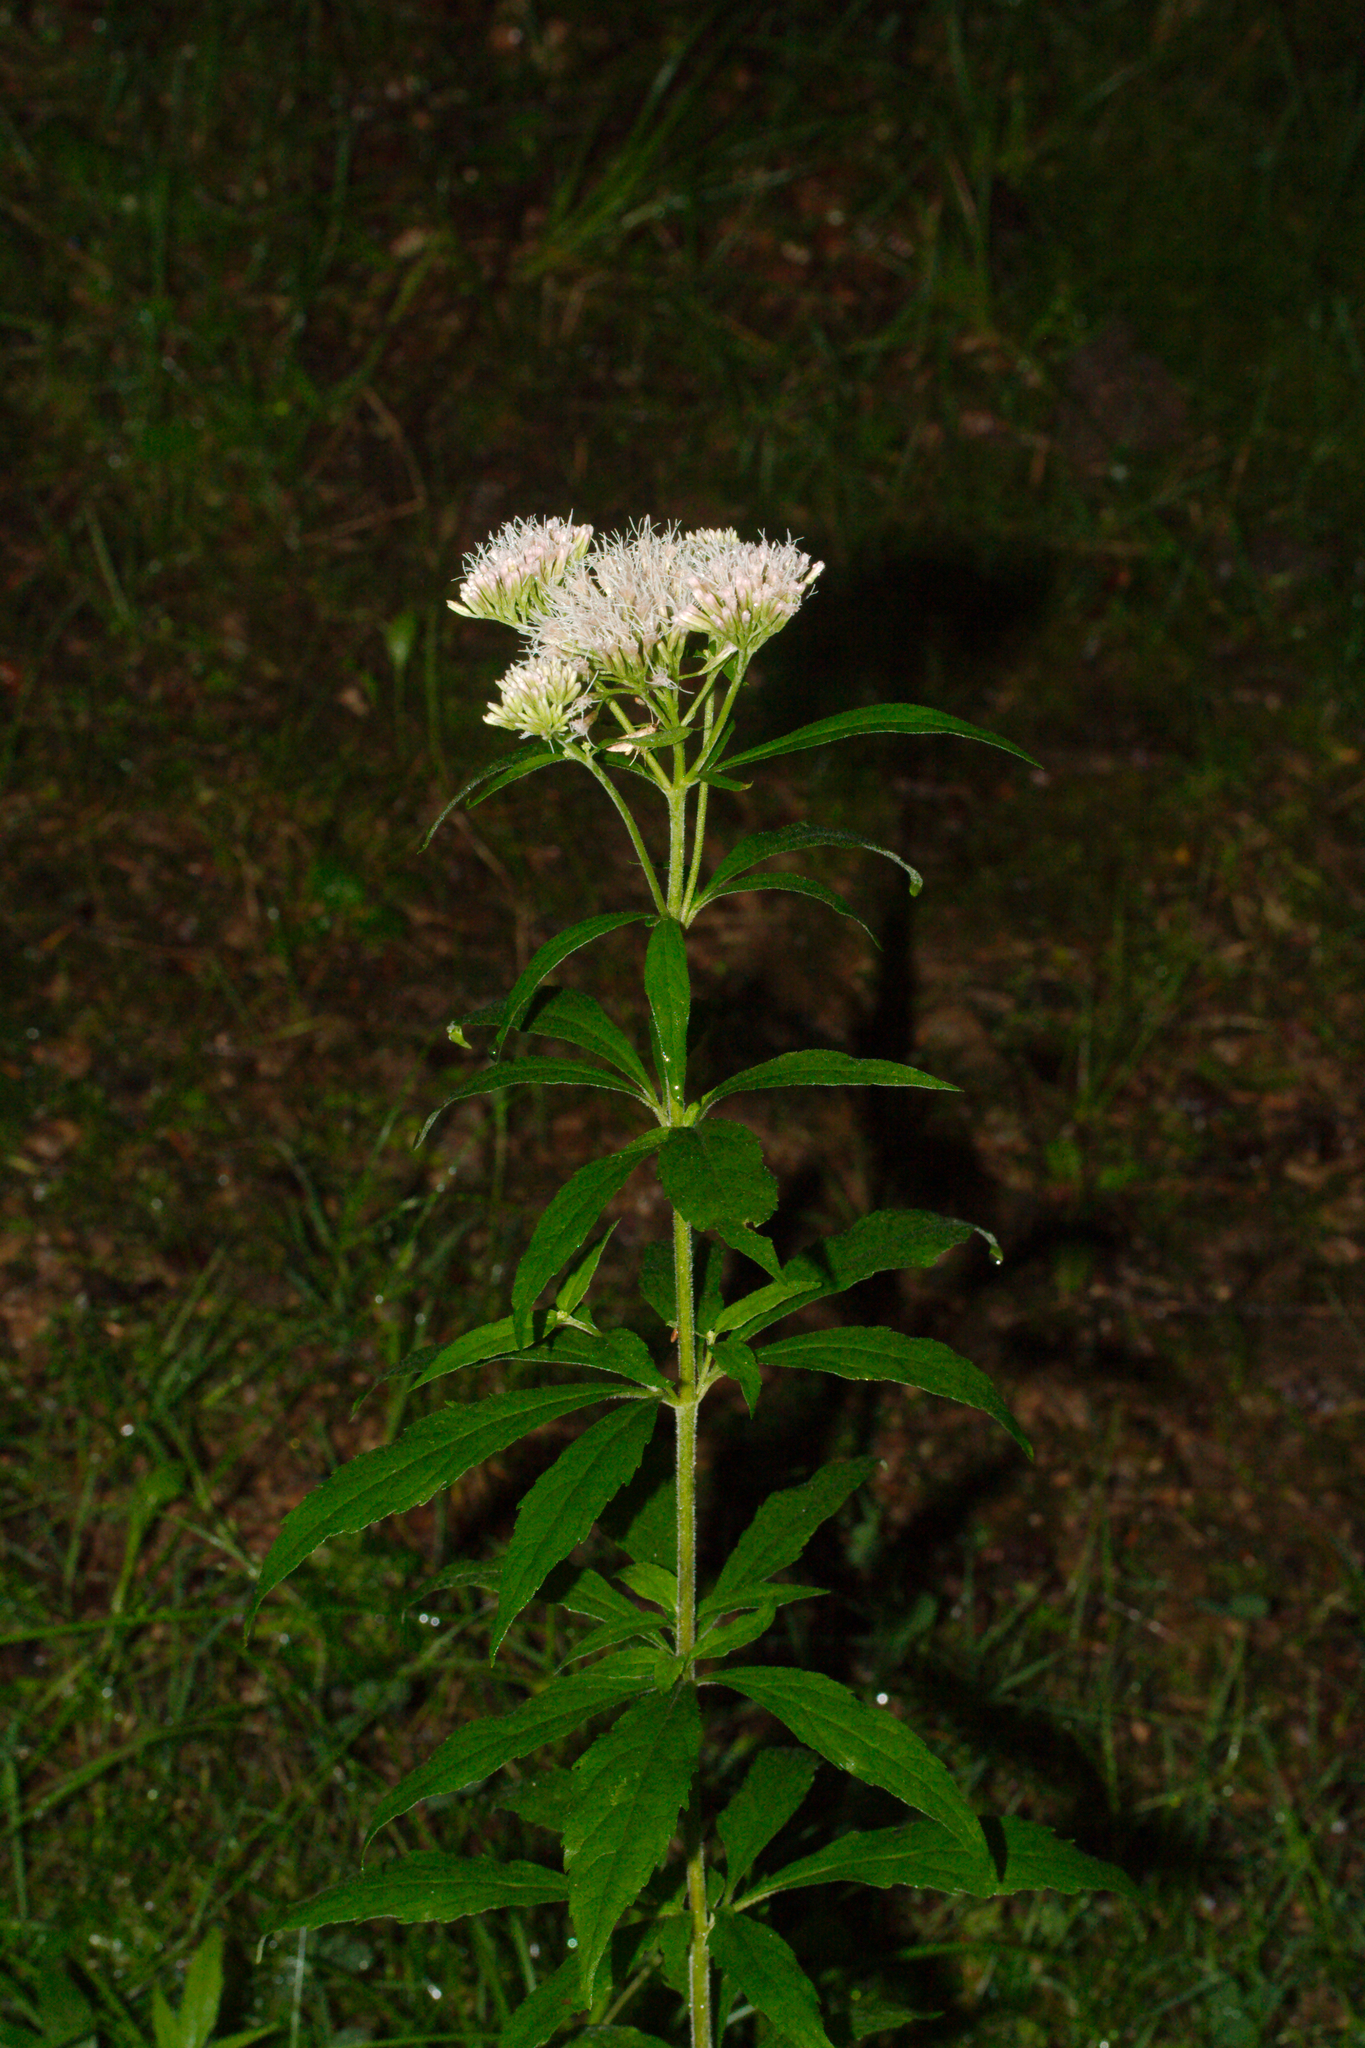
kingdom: Plantae
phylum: Tracheophyta
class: Magnoliopsida
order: Asterales
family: Asteraceae
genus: Eupatorium
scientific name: Eupatorium cannabinum
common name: Hemp-agrimony
